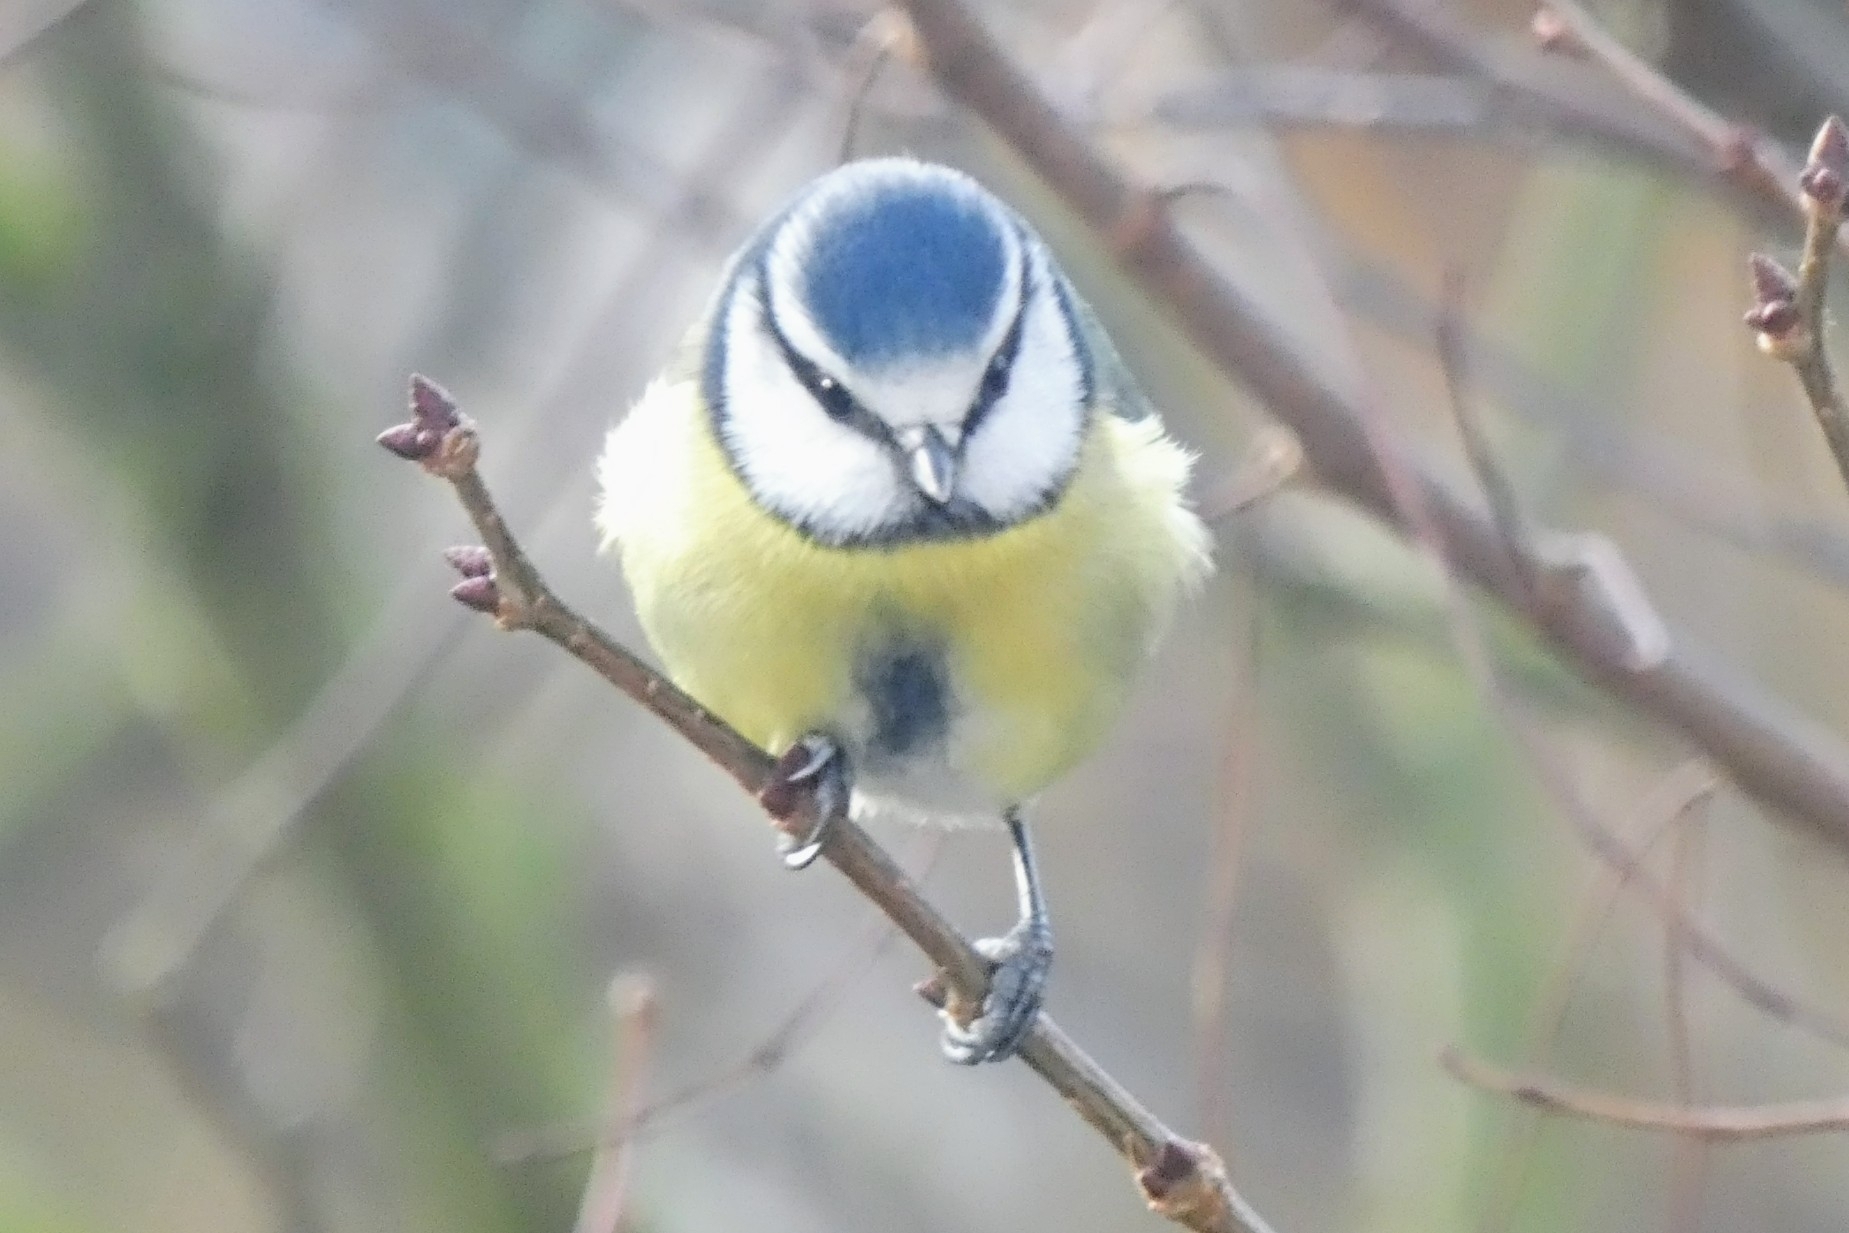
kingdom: Animalia
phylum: Chordata
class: Aves
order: Passeriformes
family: Paridae
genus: Cyanistes
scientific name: Cyanistes caeruleus
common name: Eurasian blue tit
